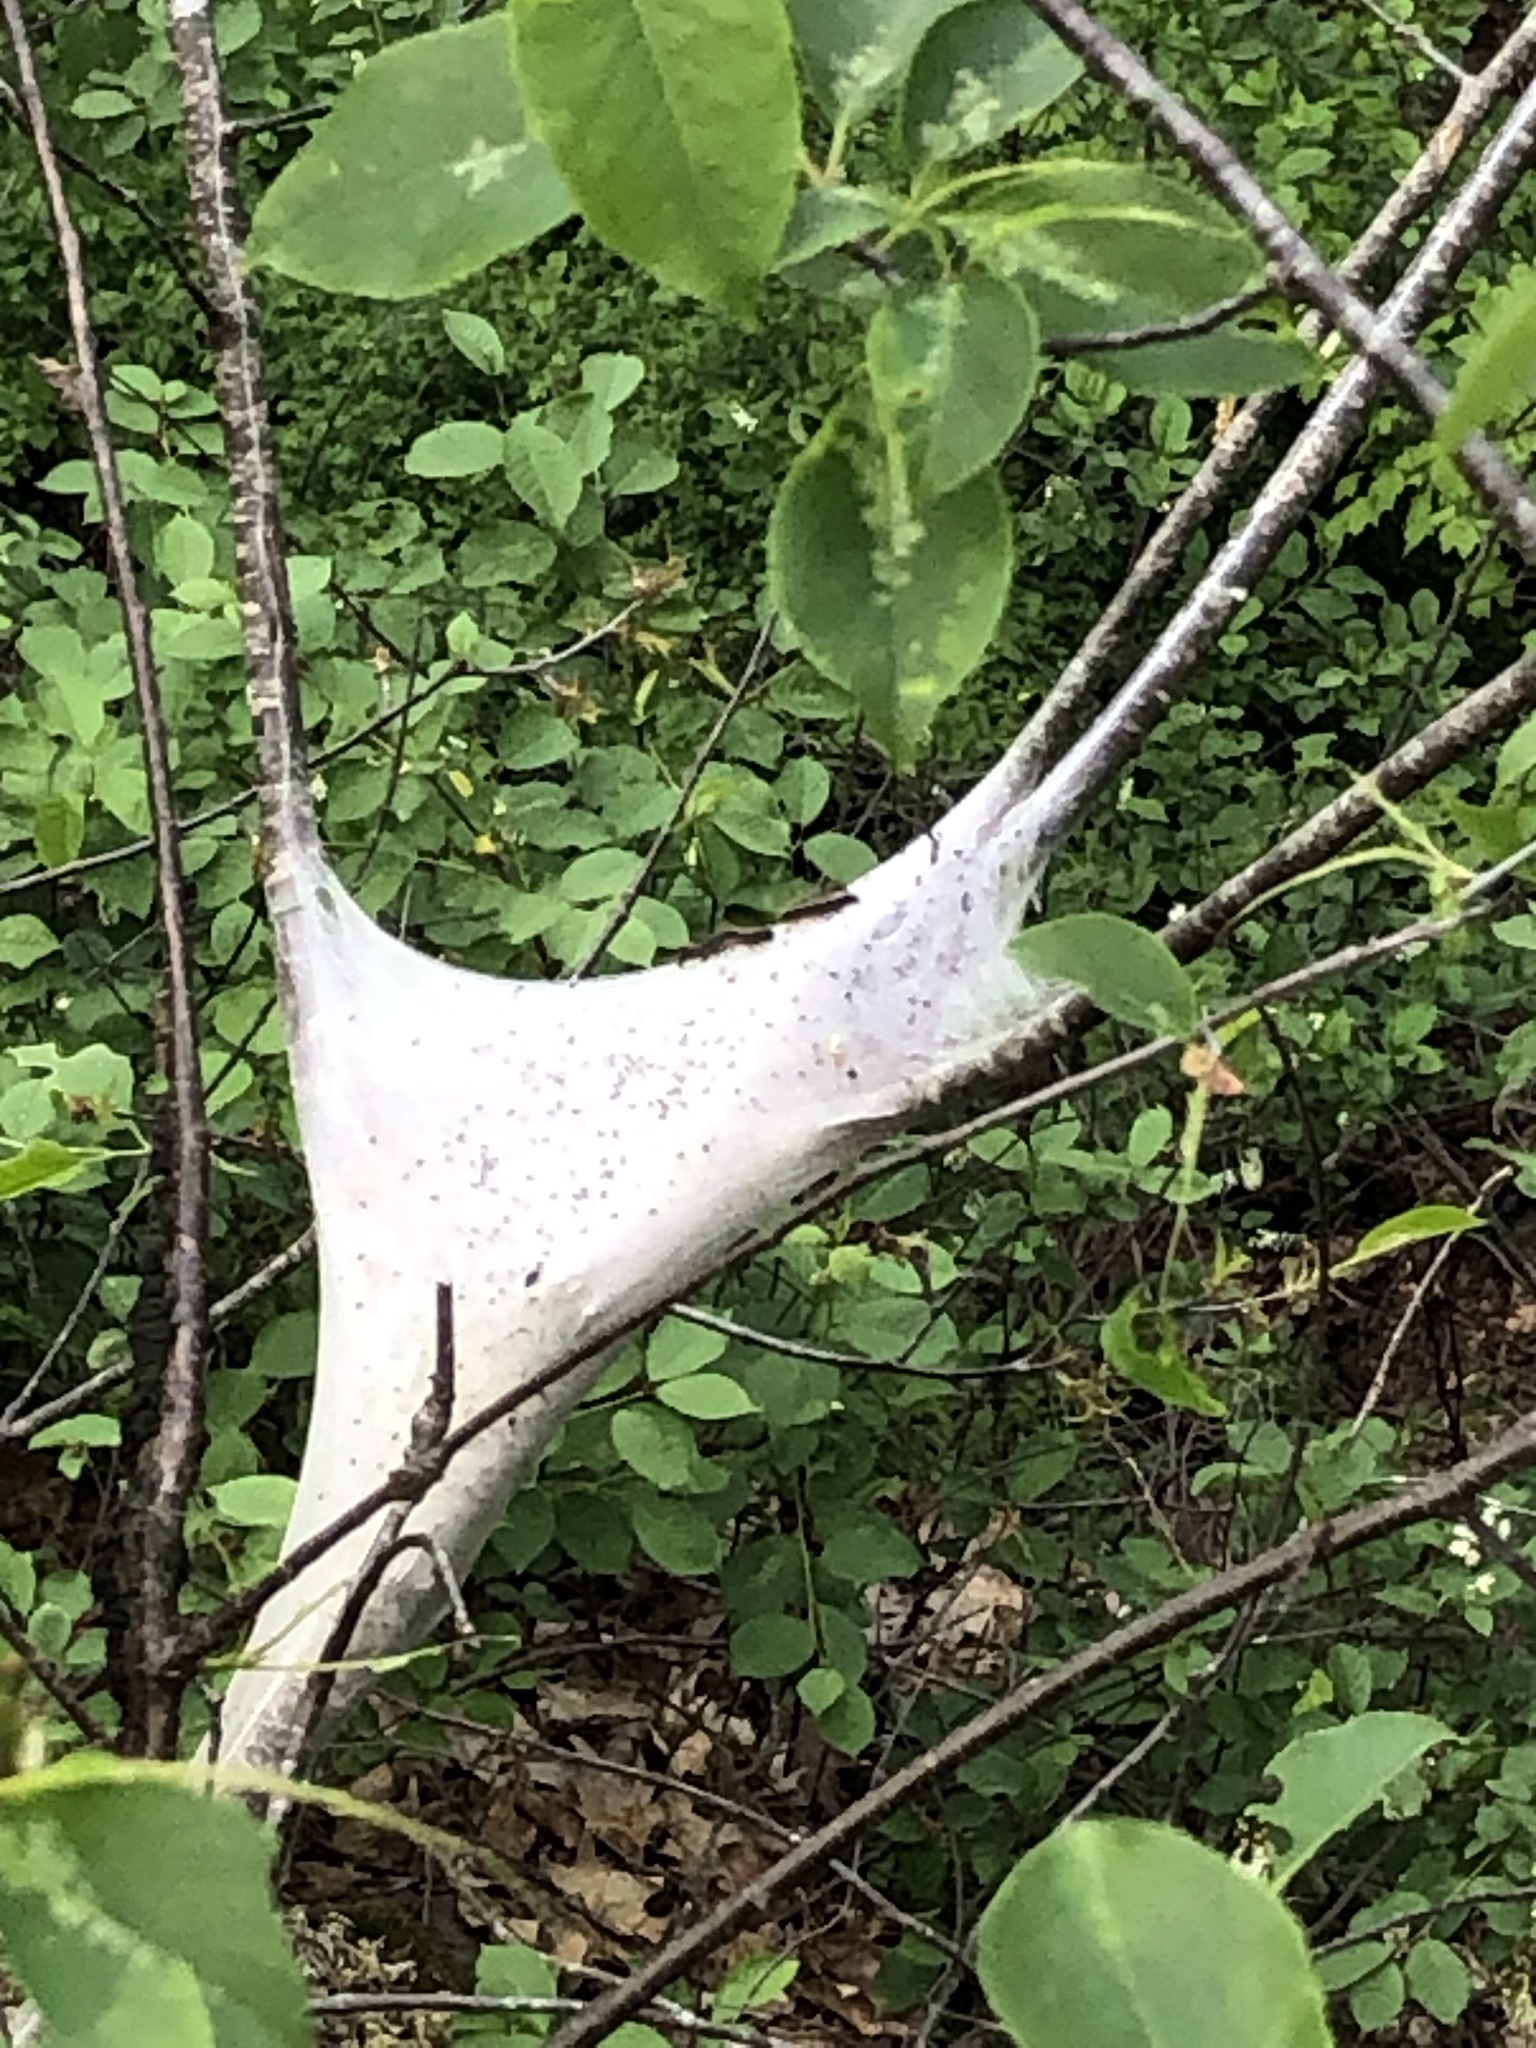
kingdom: Animalia
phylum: Arthropoda
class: Insecta
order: Lepidoptera
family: Lasiocampidae
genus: Malacosoma
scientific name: Malacosoma americana
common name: Eastern tent caterpillar moth
